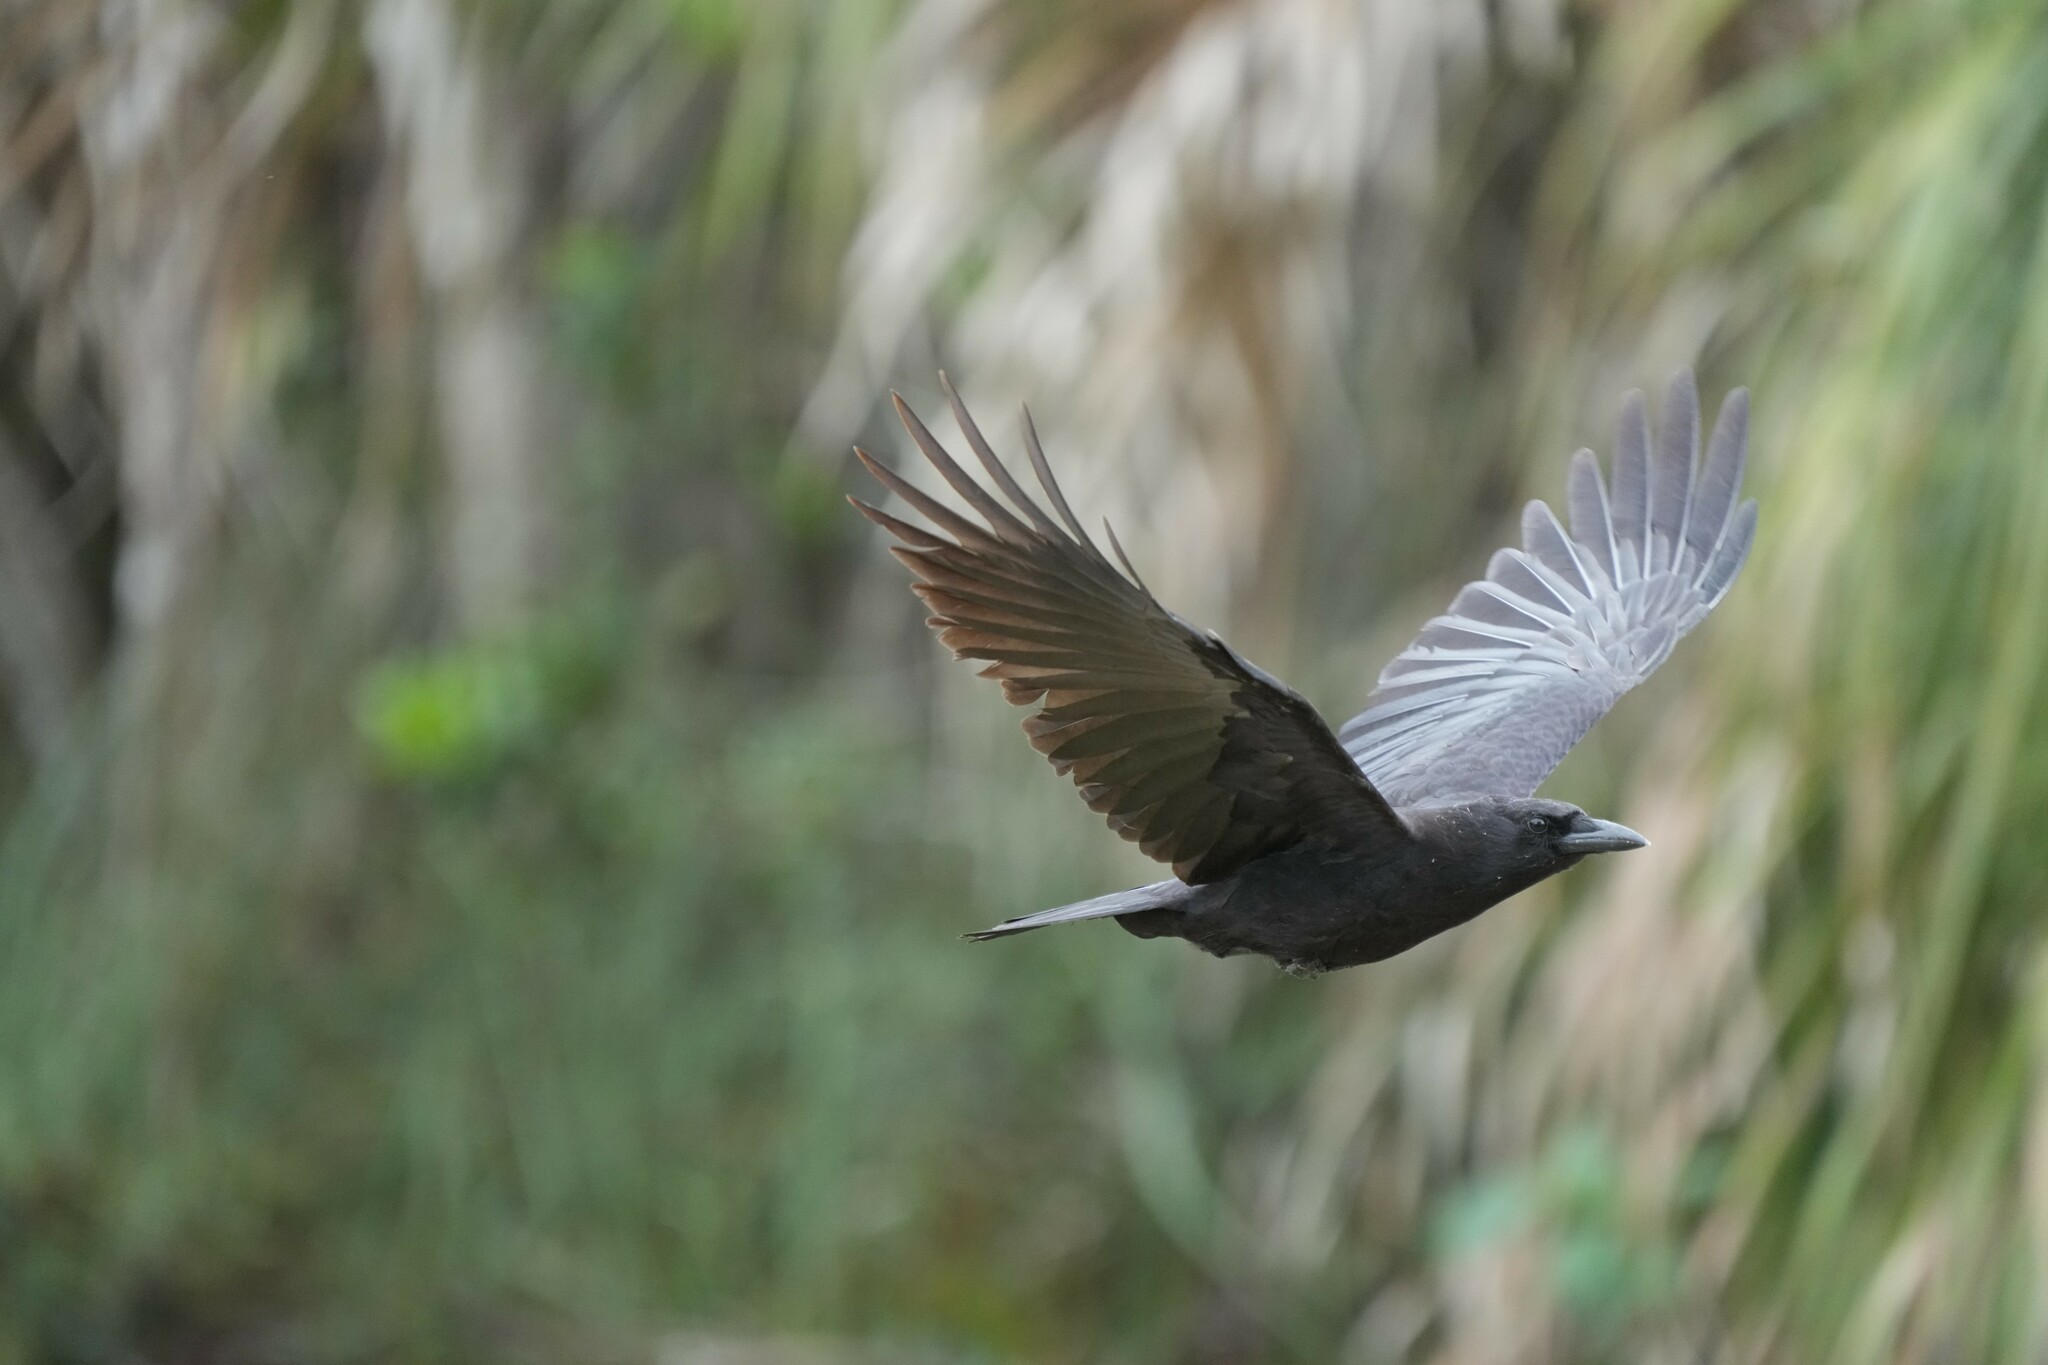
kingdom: Animalia
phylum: Chordata
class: Aves
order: Passeriformes
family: Corvidae
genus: Corvus
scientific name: Corvus brachyrhynchos
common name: American crow
